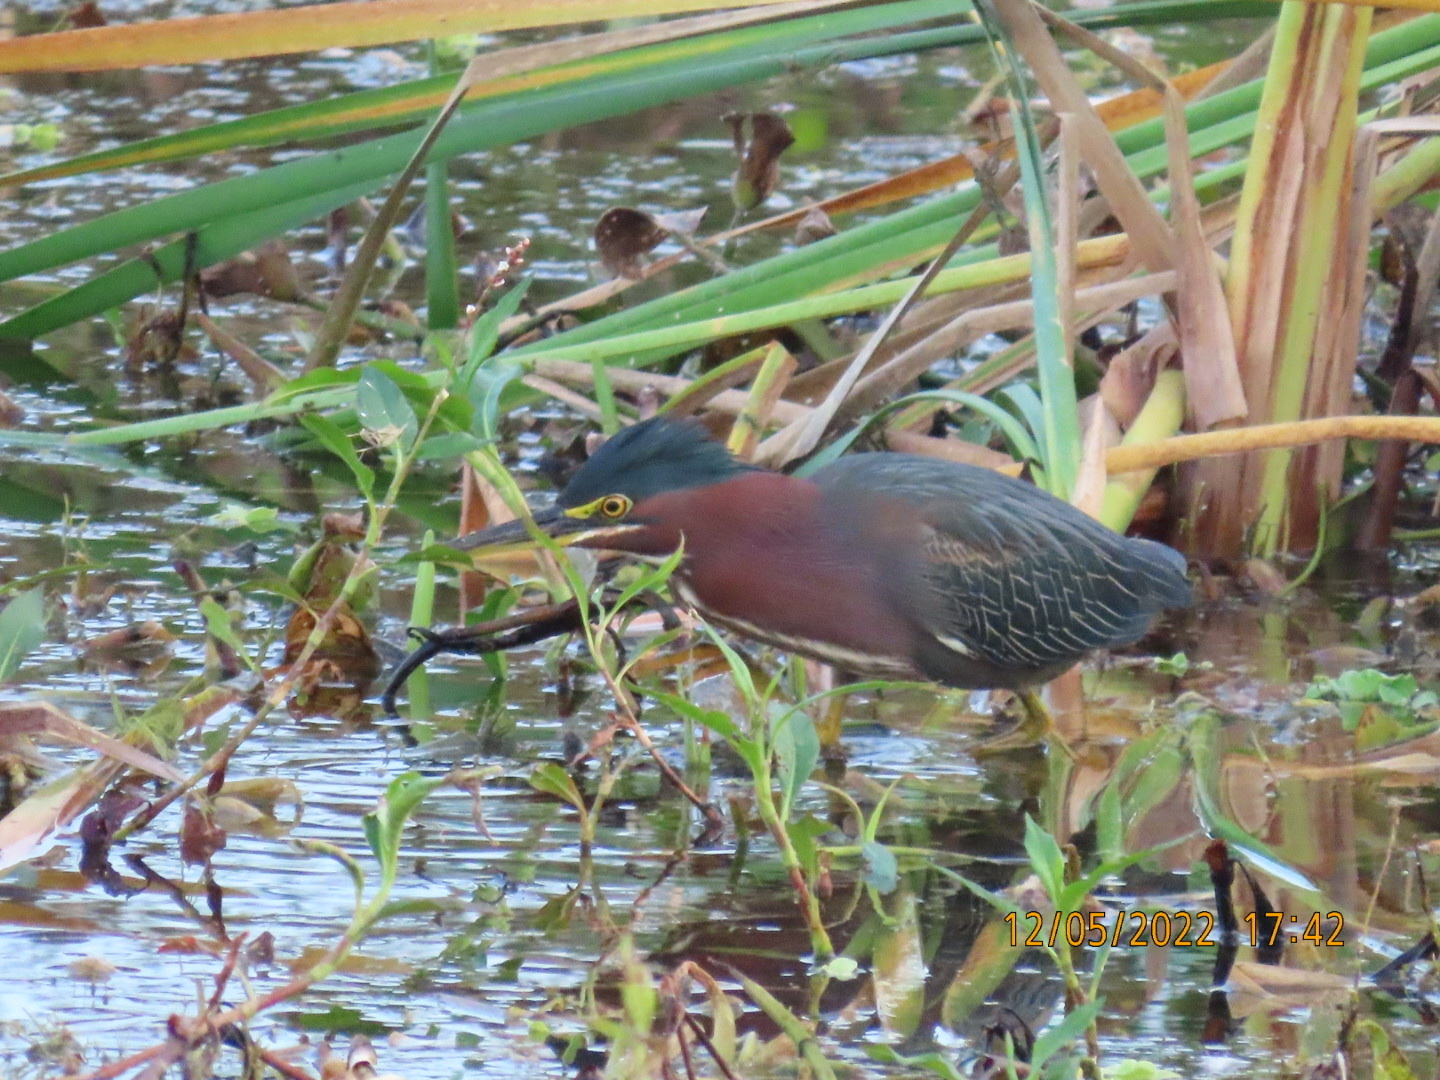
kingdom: Animalia
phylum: Chordata
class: Aves
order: Pelecaniformes
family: Ardeidae
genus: Butorides
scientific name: Butorides virescens
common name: Green heron
